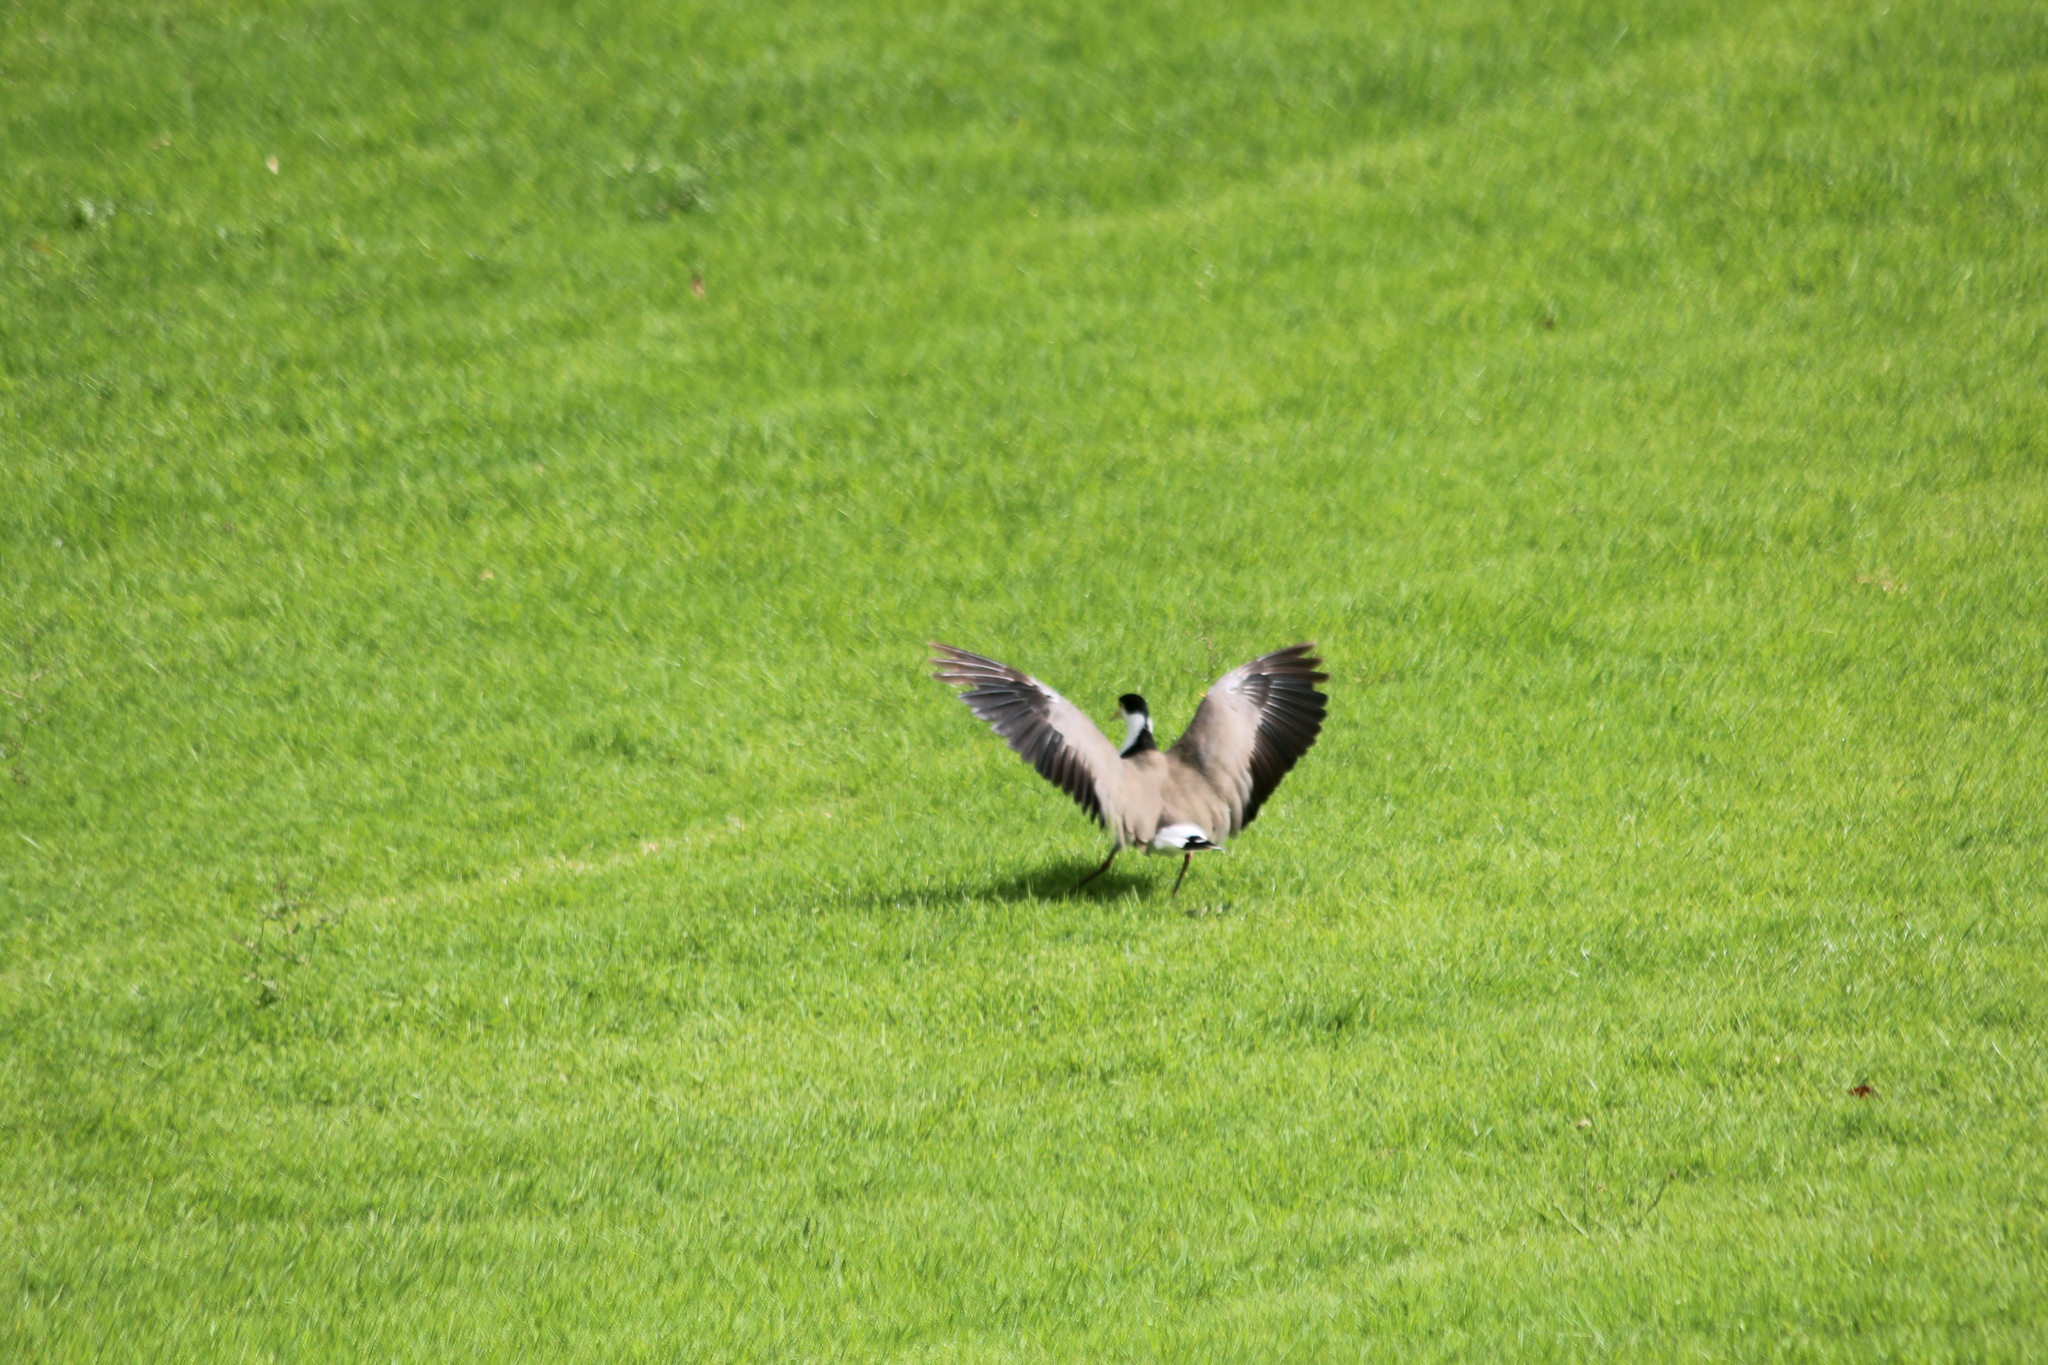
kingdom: Animalia
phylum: Chordata
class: Aves
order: Charadriiformes
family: Charadriidae
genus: Vanellus
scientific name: Vanellus miles
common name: Masked lapwing
